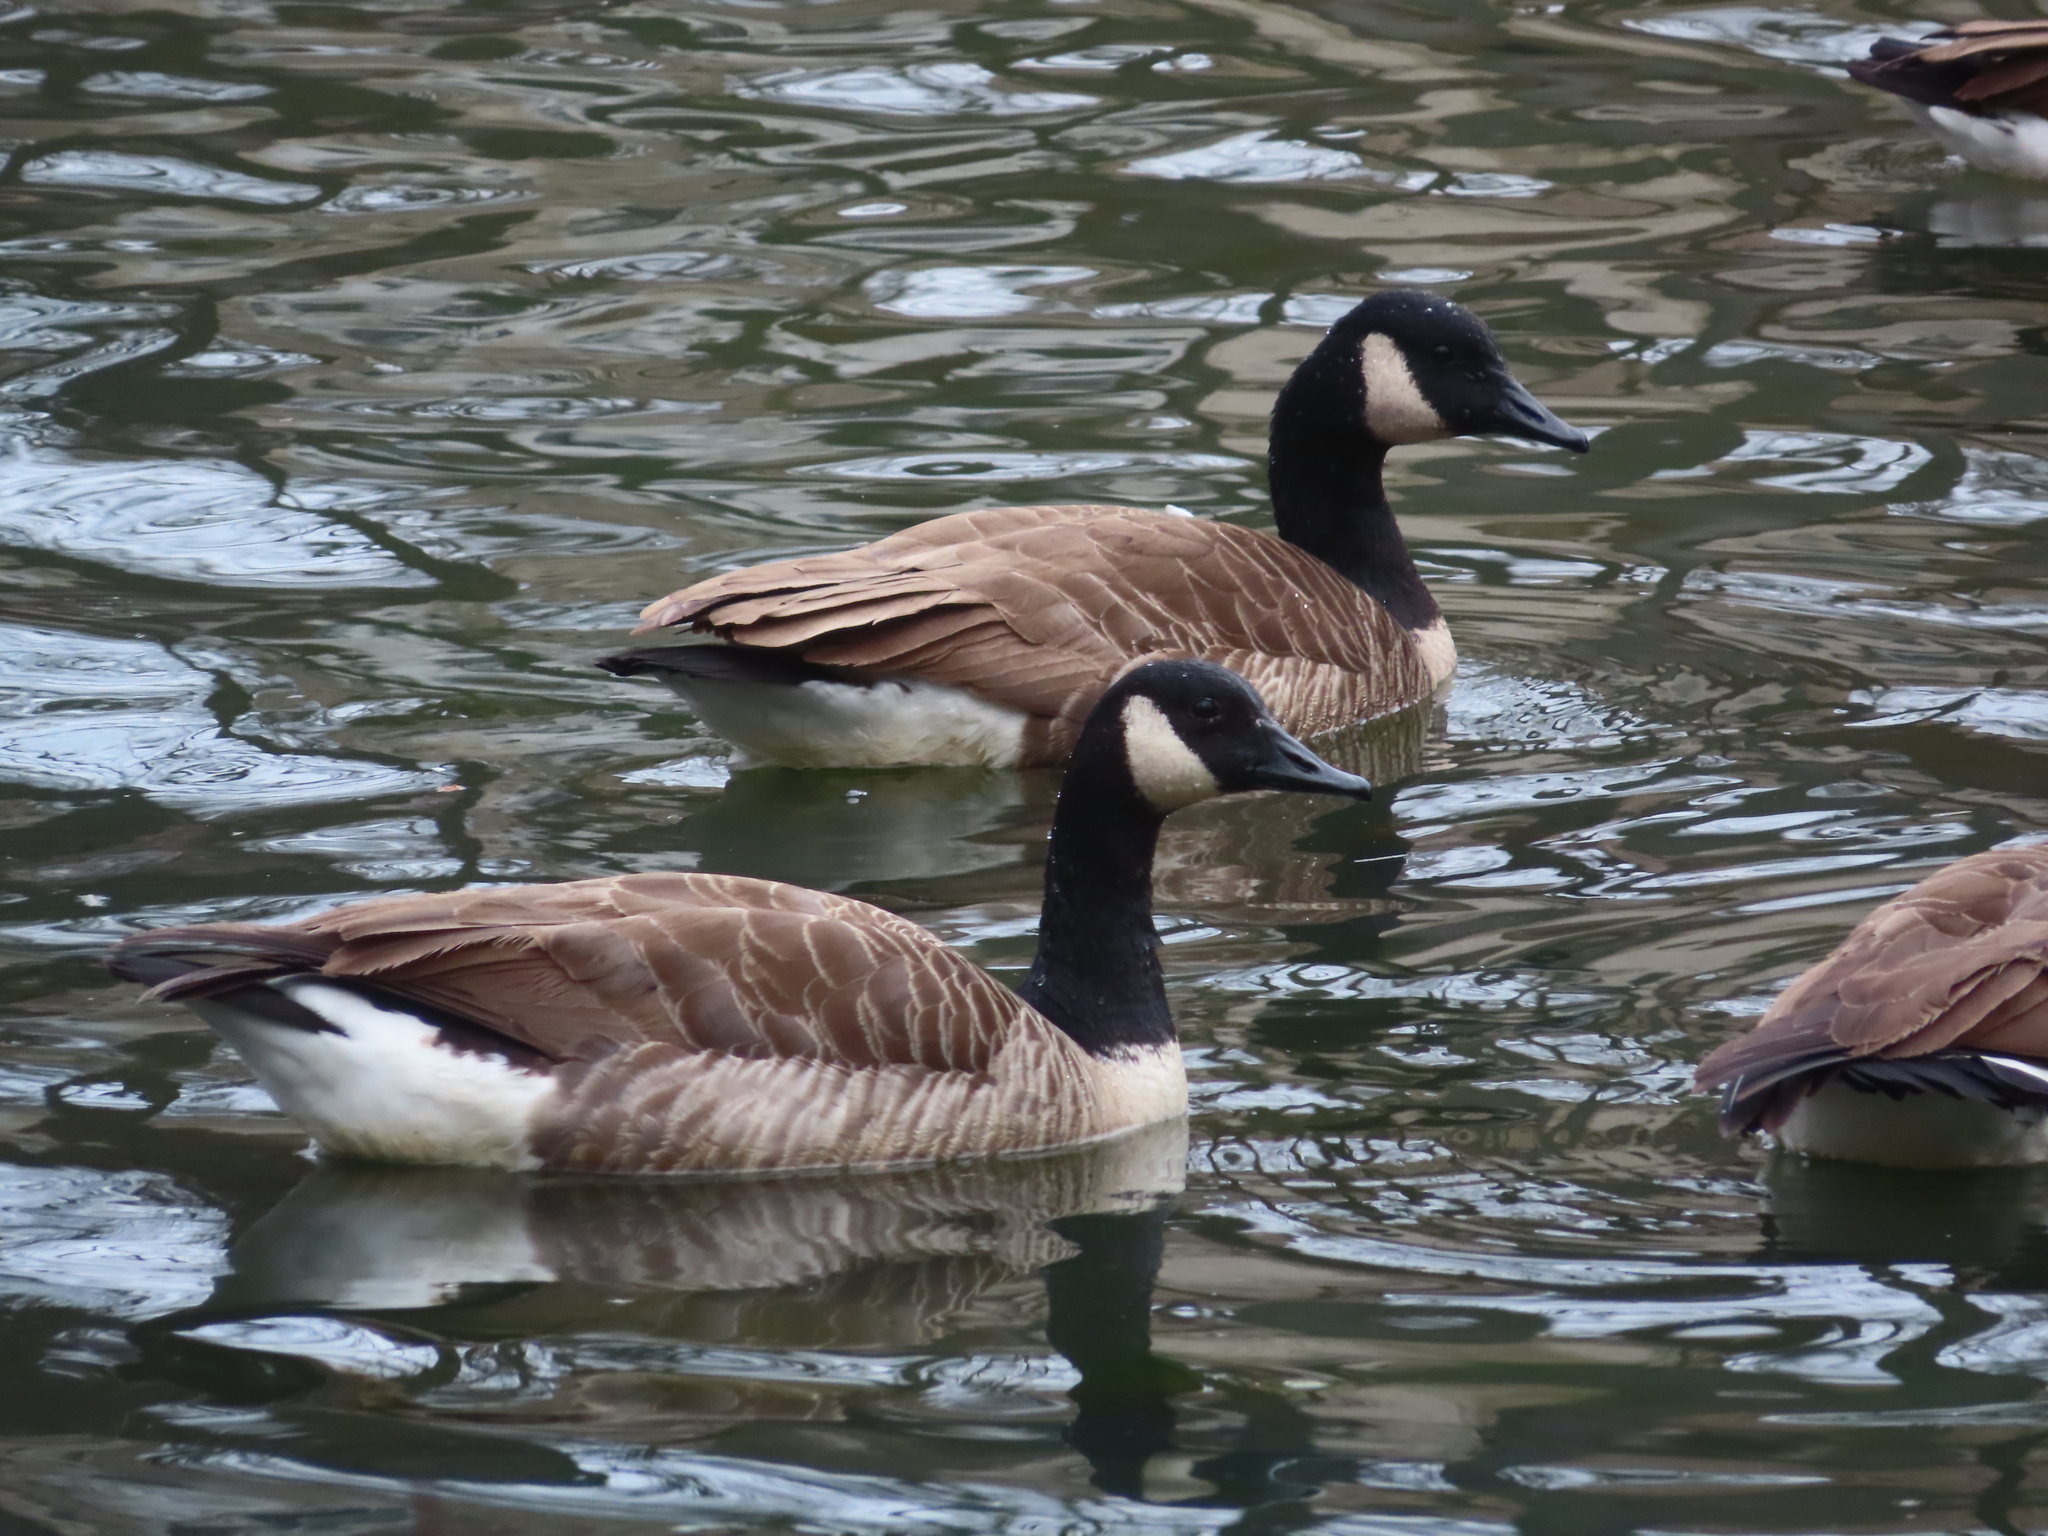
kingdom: Animalia
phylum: Chordata
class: Aves
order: Anseriformes
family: Anatidae
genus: Branta
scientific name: Branta canadensis
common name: Canada goose
